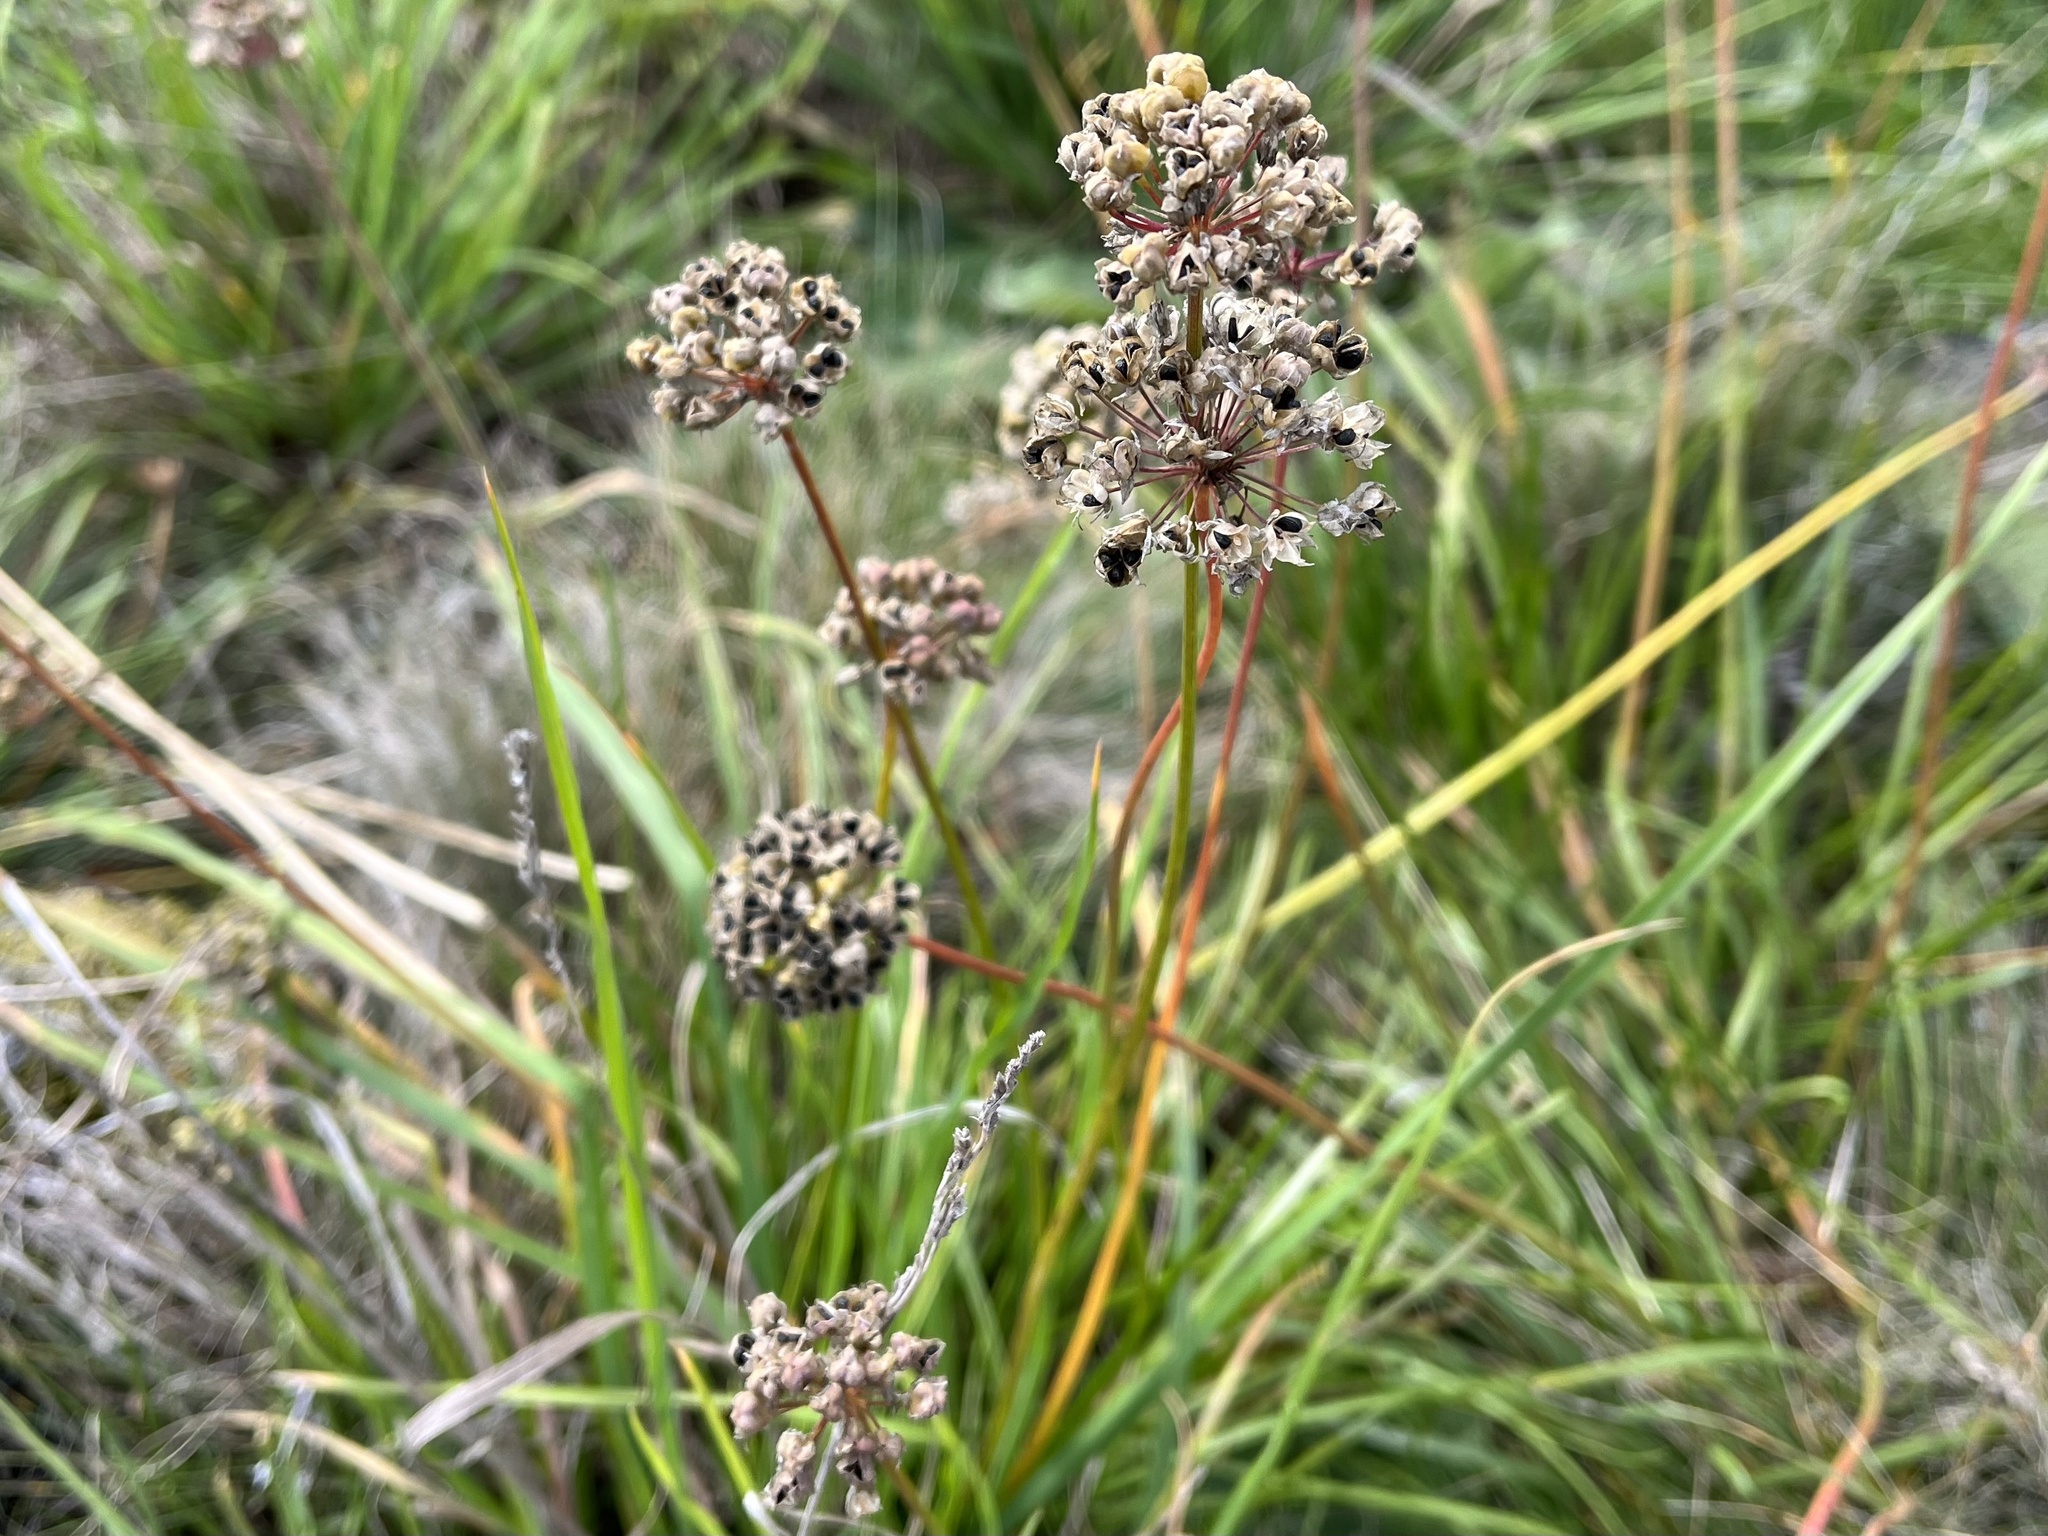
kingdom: Plantae
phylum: Tracheophyta
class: Liliopsida
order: Asparagales
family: Amaryllidaceae
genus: Allium
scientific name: Allium lusitanicum
